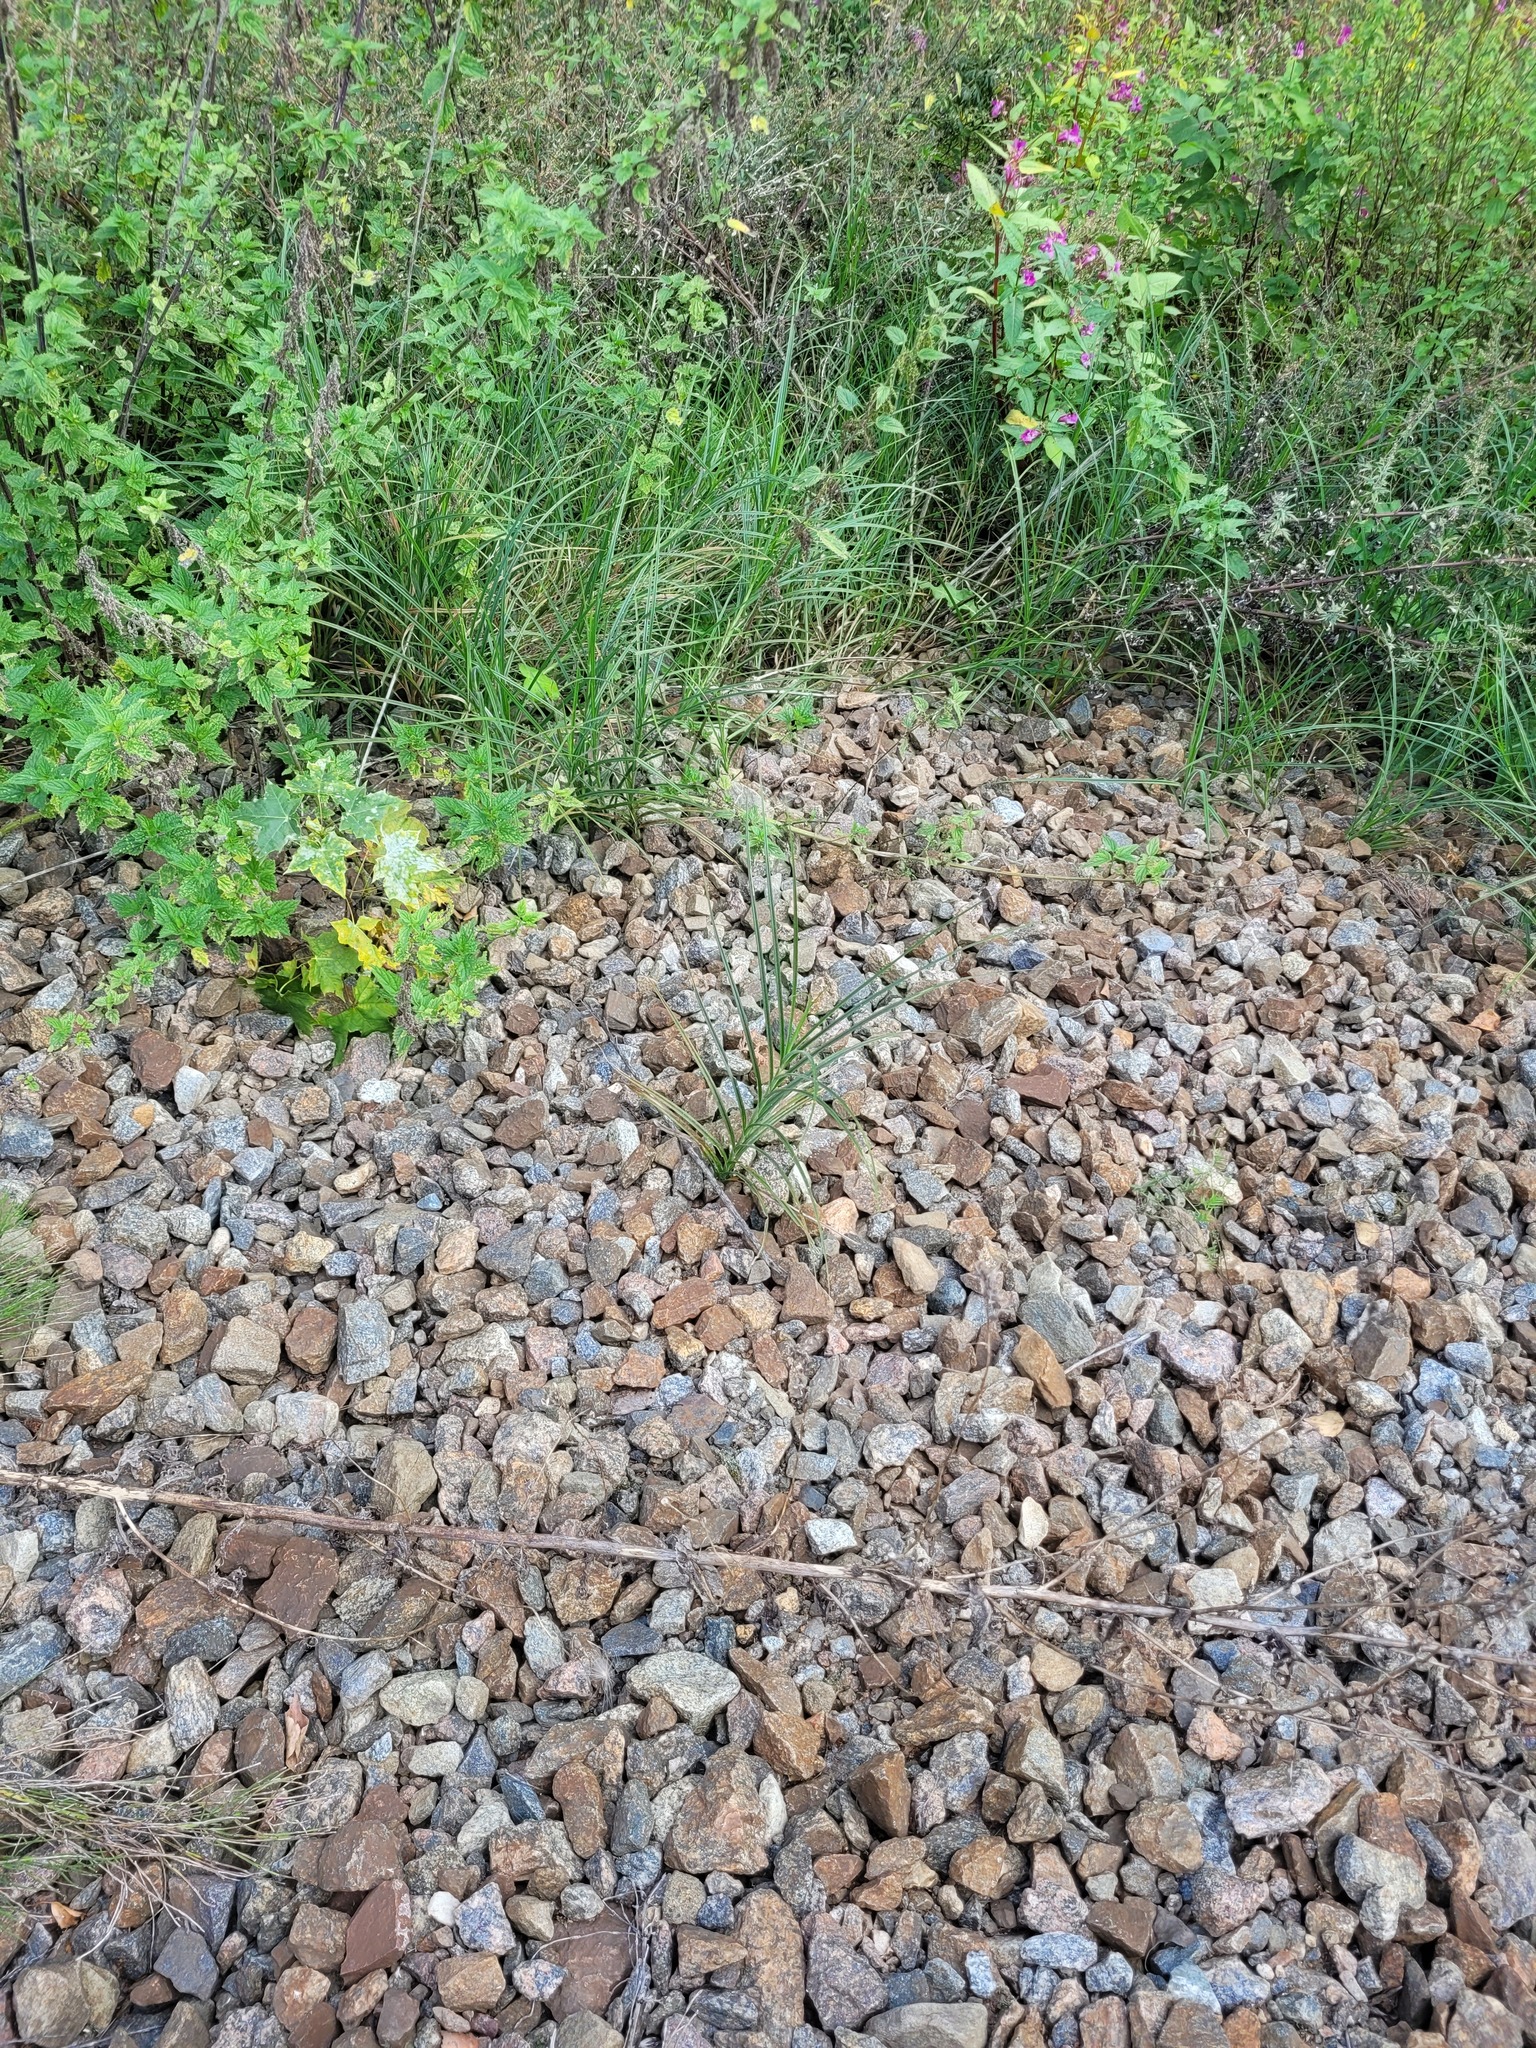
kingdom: Plantae
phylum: Tracheophyta
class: Liliopsida
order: Poales
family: Cyperaceae
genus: Carex
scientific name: Carex hirta
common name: Hairy sedge
